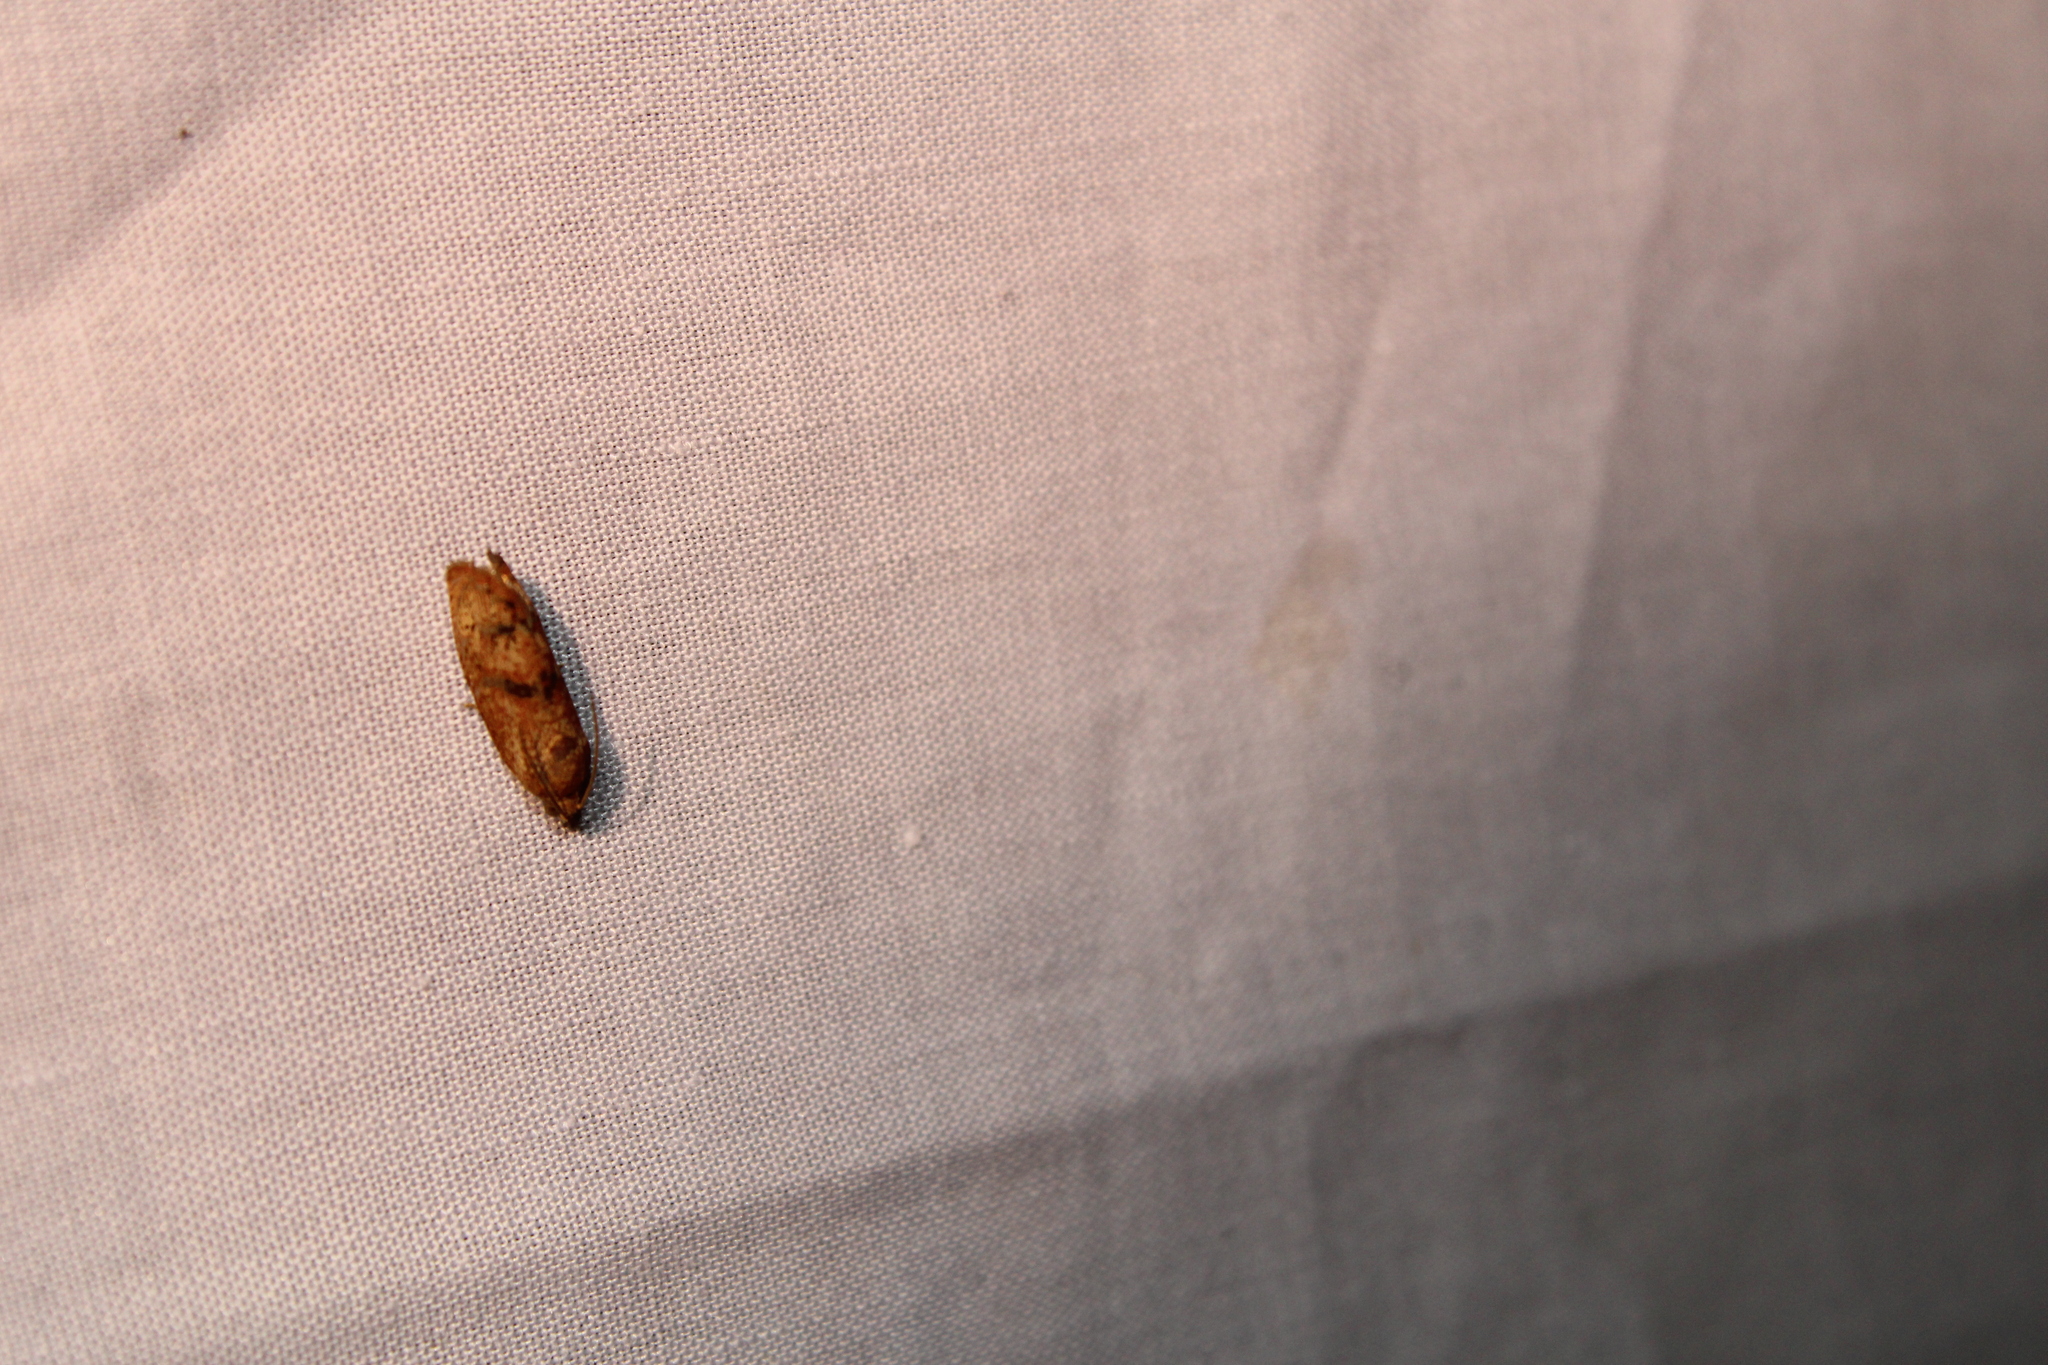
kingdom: Animalia
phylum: Arthropoda
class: Insecta
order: Lepidoptera
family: Tortricidae
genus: Cydia
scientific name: Cydia latiferreana
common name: Filbertworm moth
